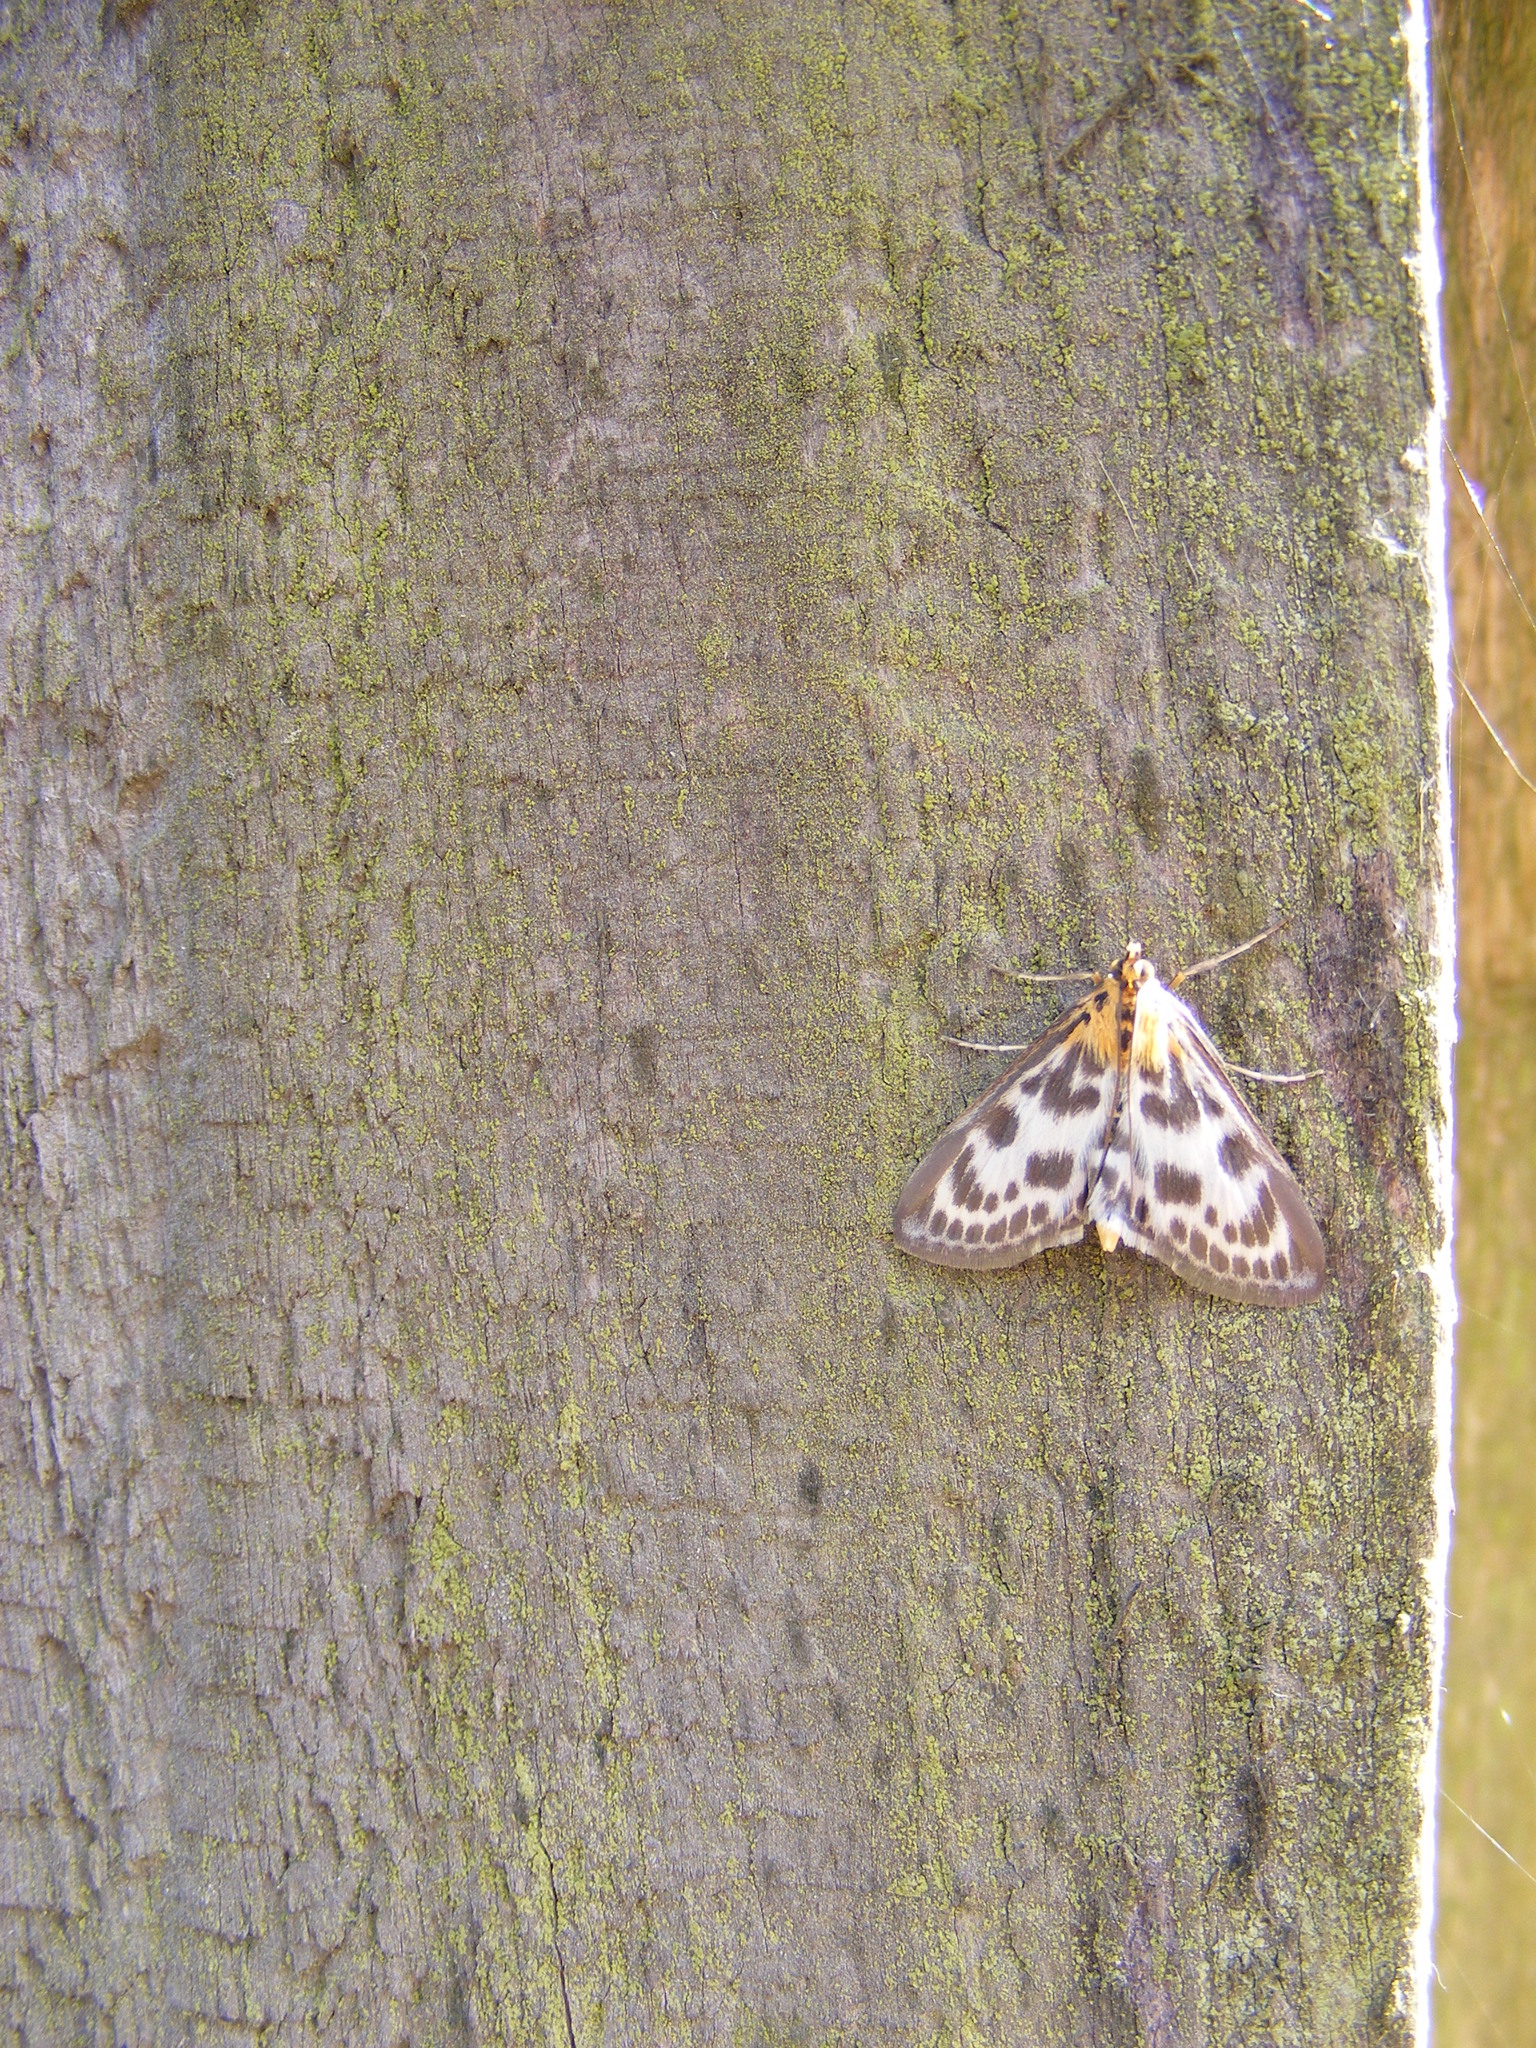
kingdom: Animalia
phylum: Arthropoda
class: Insecta
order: Lepidoptera
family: Crambidae
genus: Anania
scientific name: Anania hortulata
